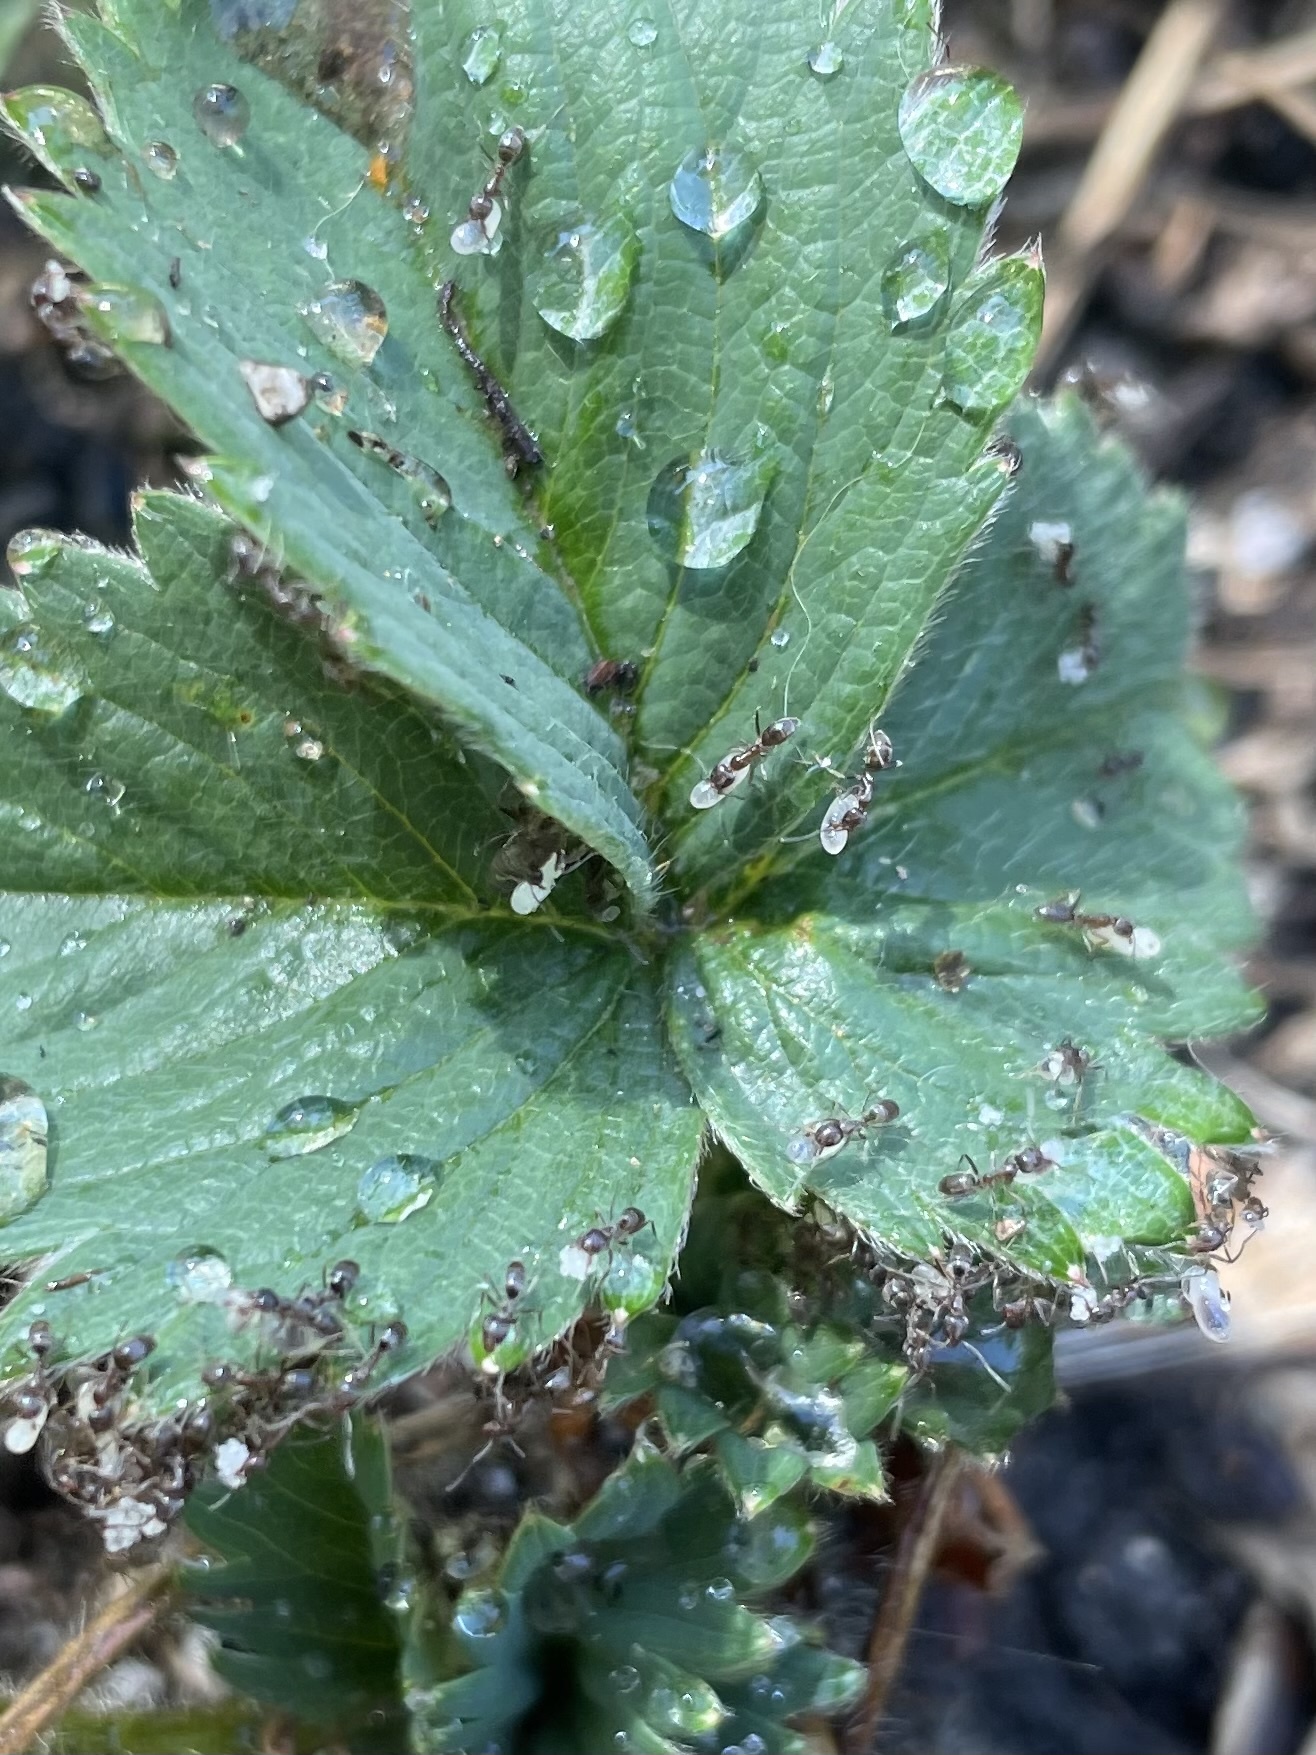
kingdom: Animalia
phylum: Arthropoda
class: Insecta
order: Hymenoptera
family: Formicidae
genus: Linepithema
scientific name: Linepithema humile
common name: Argentine ant
